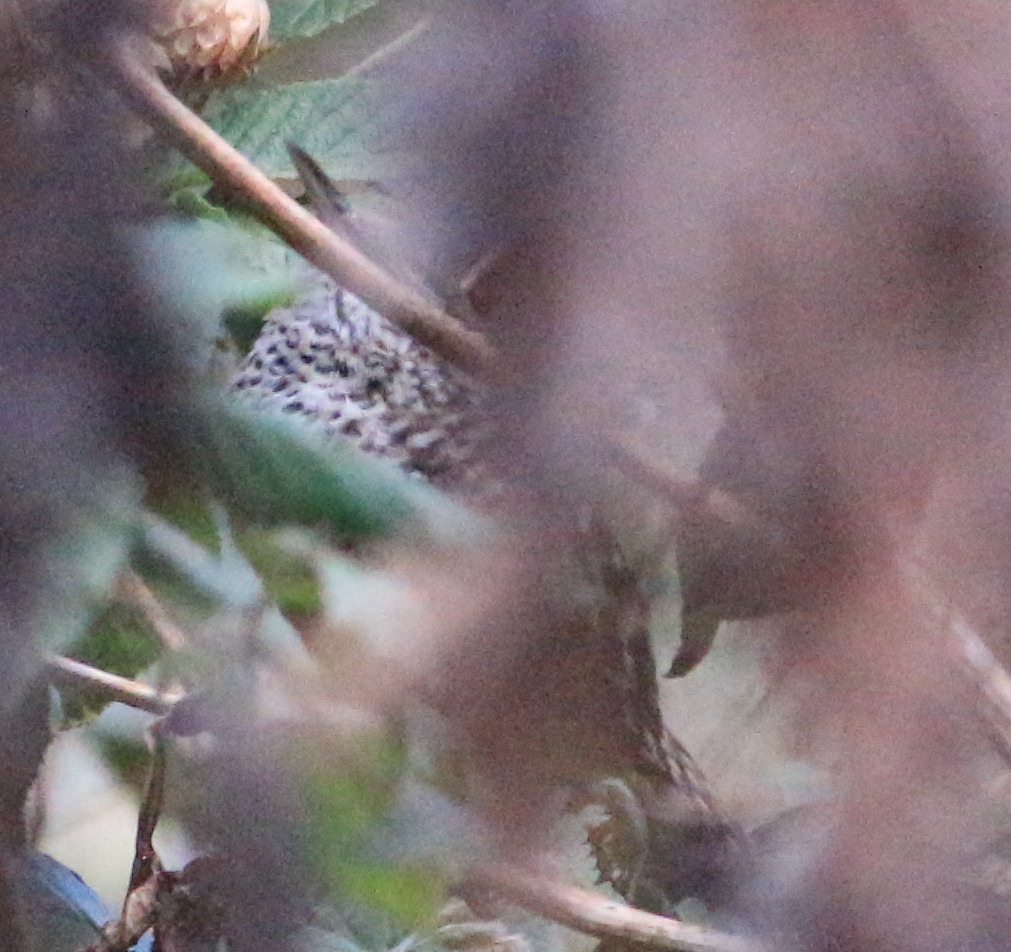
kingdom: Animalia
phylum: Chordata
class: Aves
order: Passeriformes
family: Troglodytidae
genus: Campylorhynchus
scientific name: Campylorhynchus zonatus
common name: Band-backed wren
